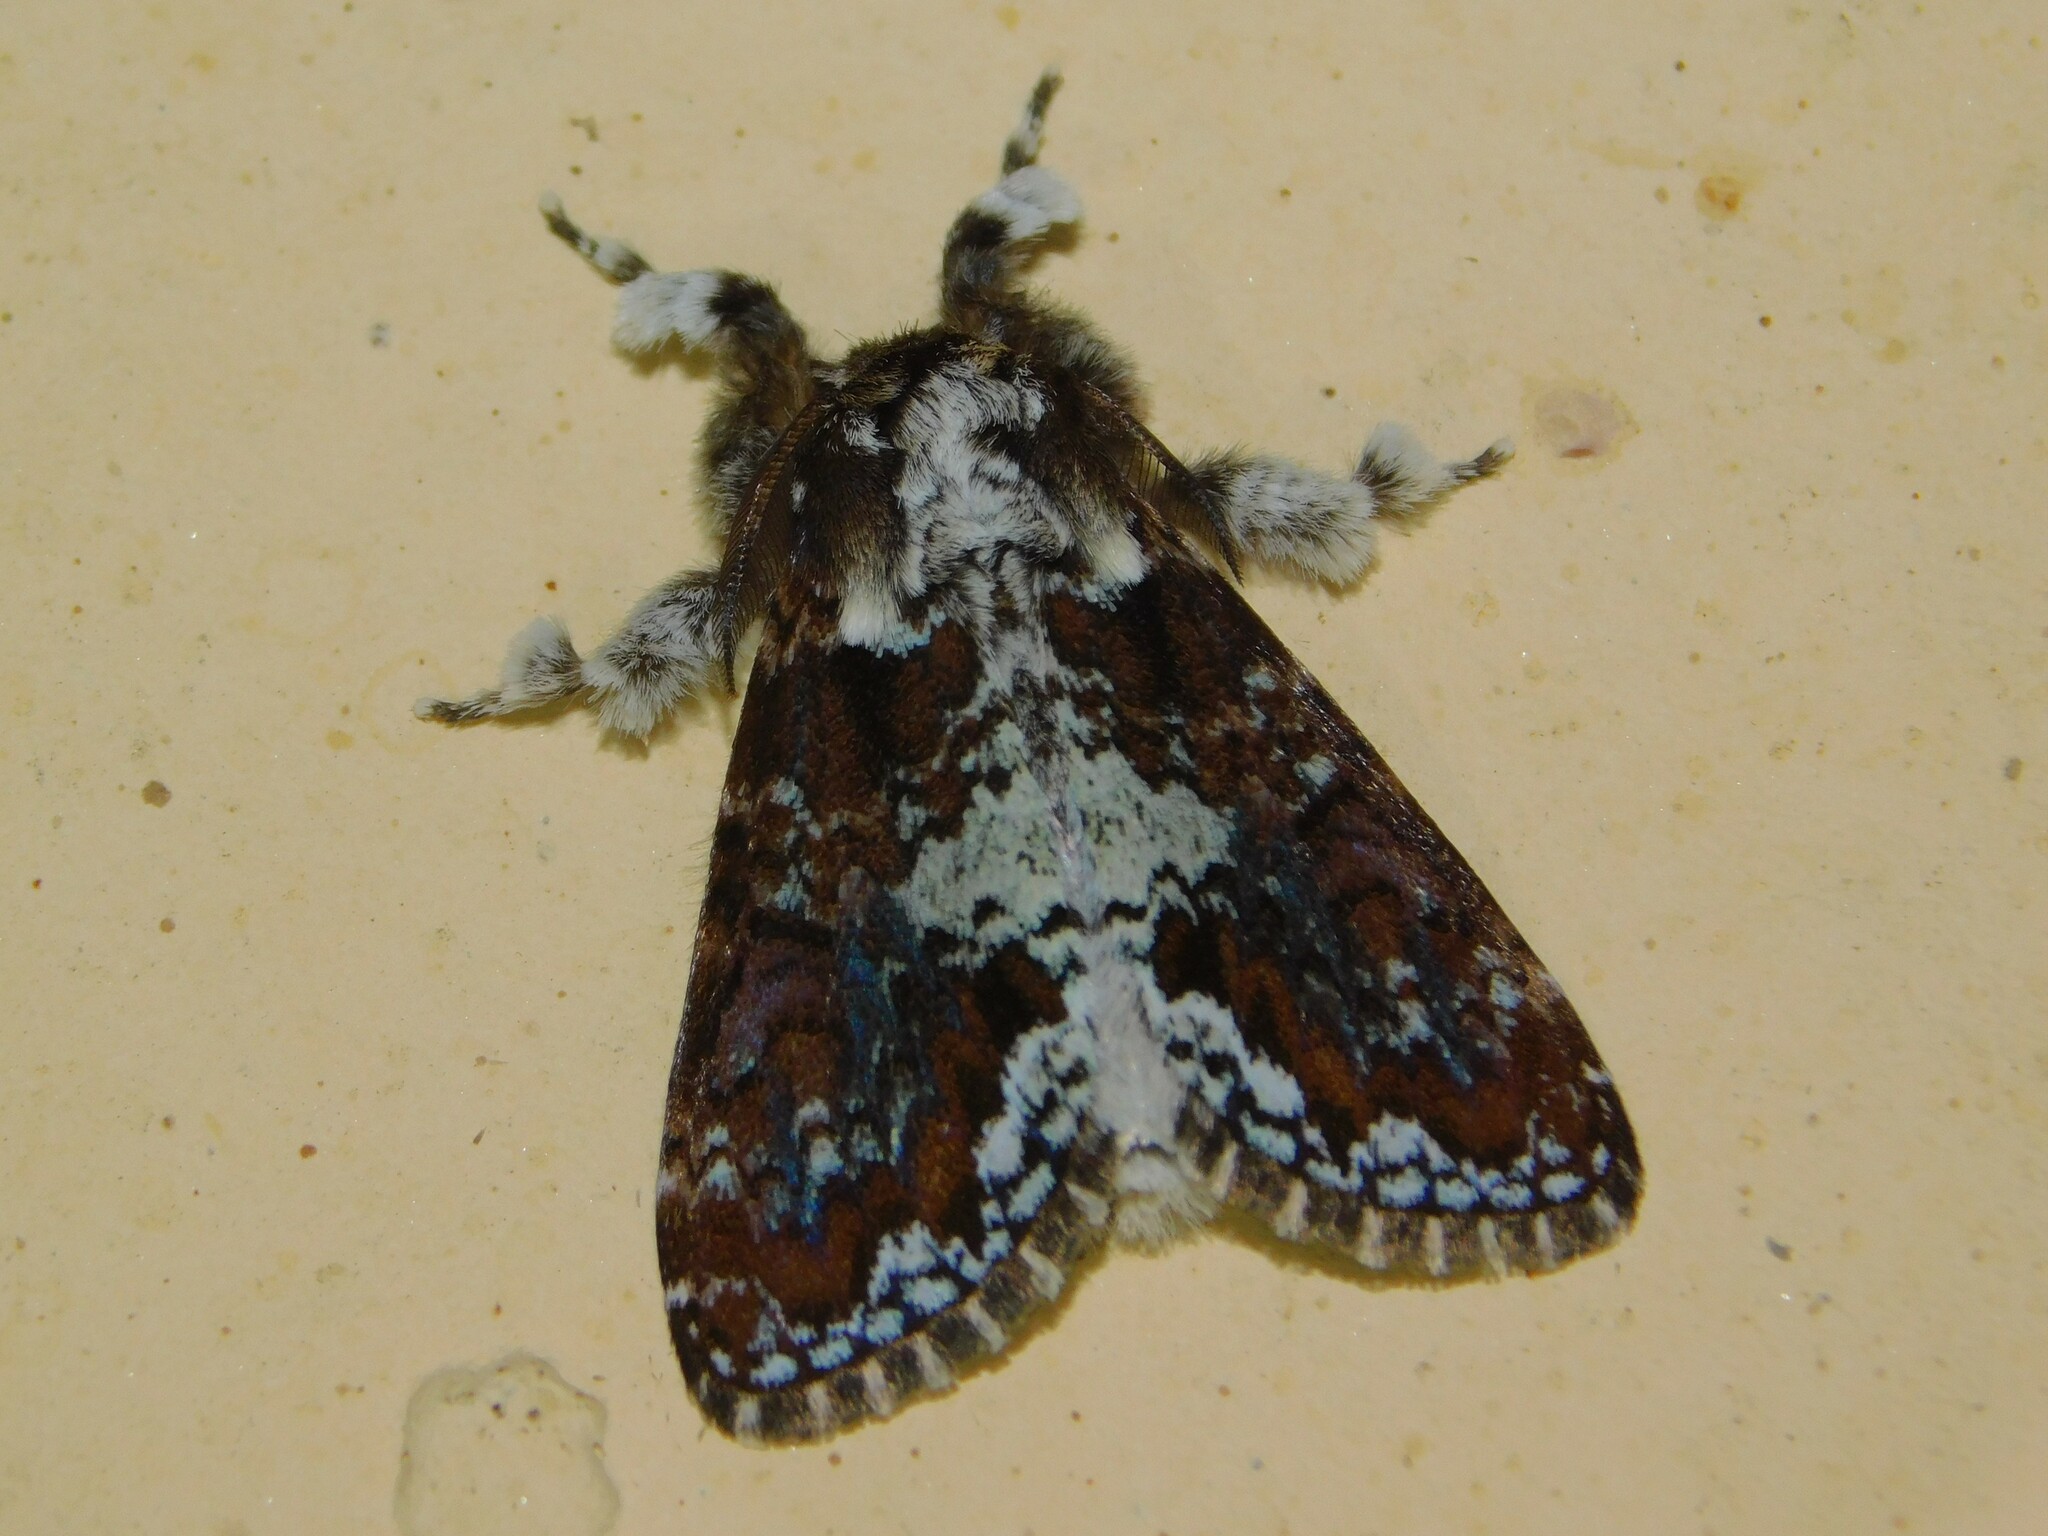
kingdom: Animalia
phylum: Arthropoda
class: Insecta
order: Lepidoptera
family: Erebidae
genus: Dasychira
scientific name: Dasychira goodii
